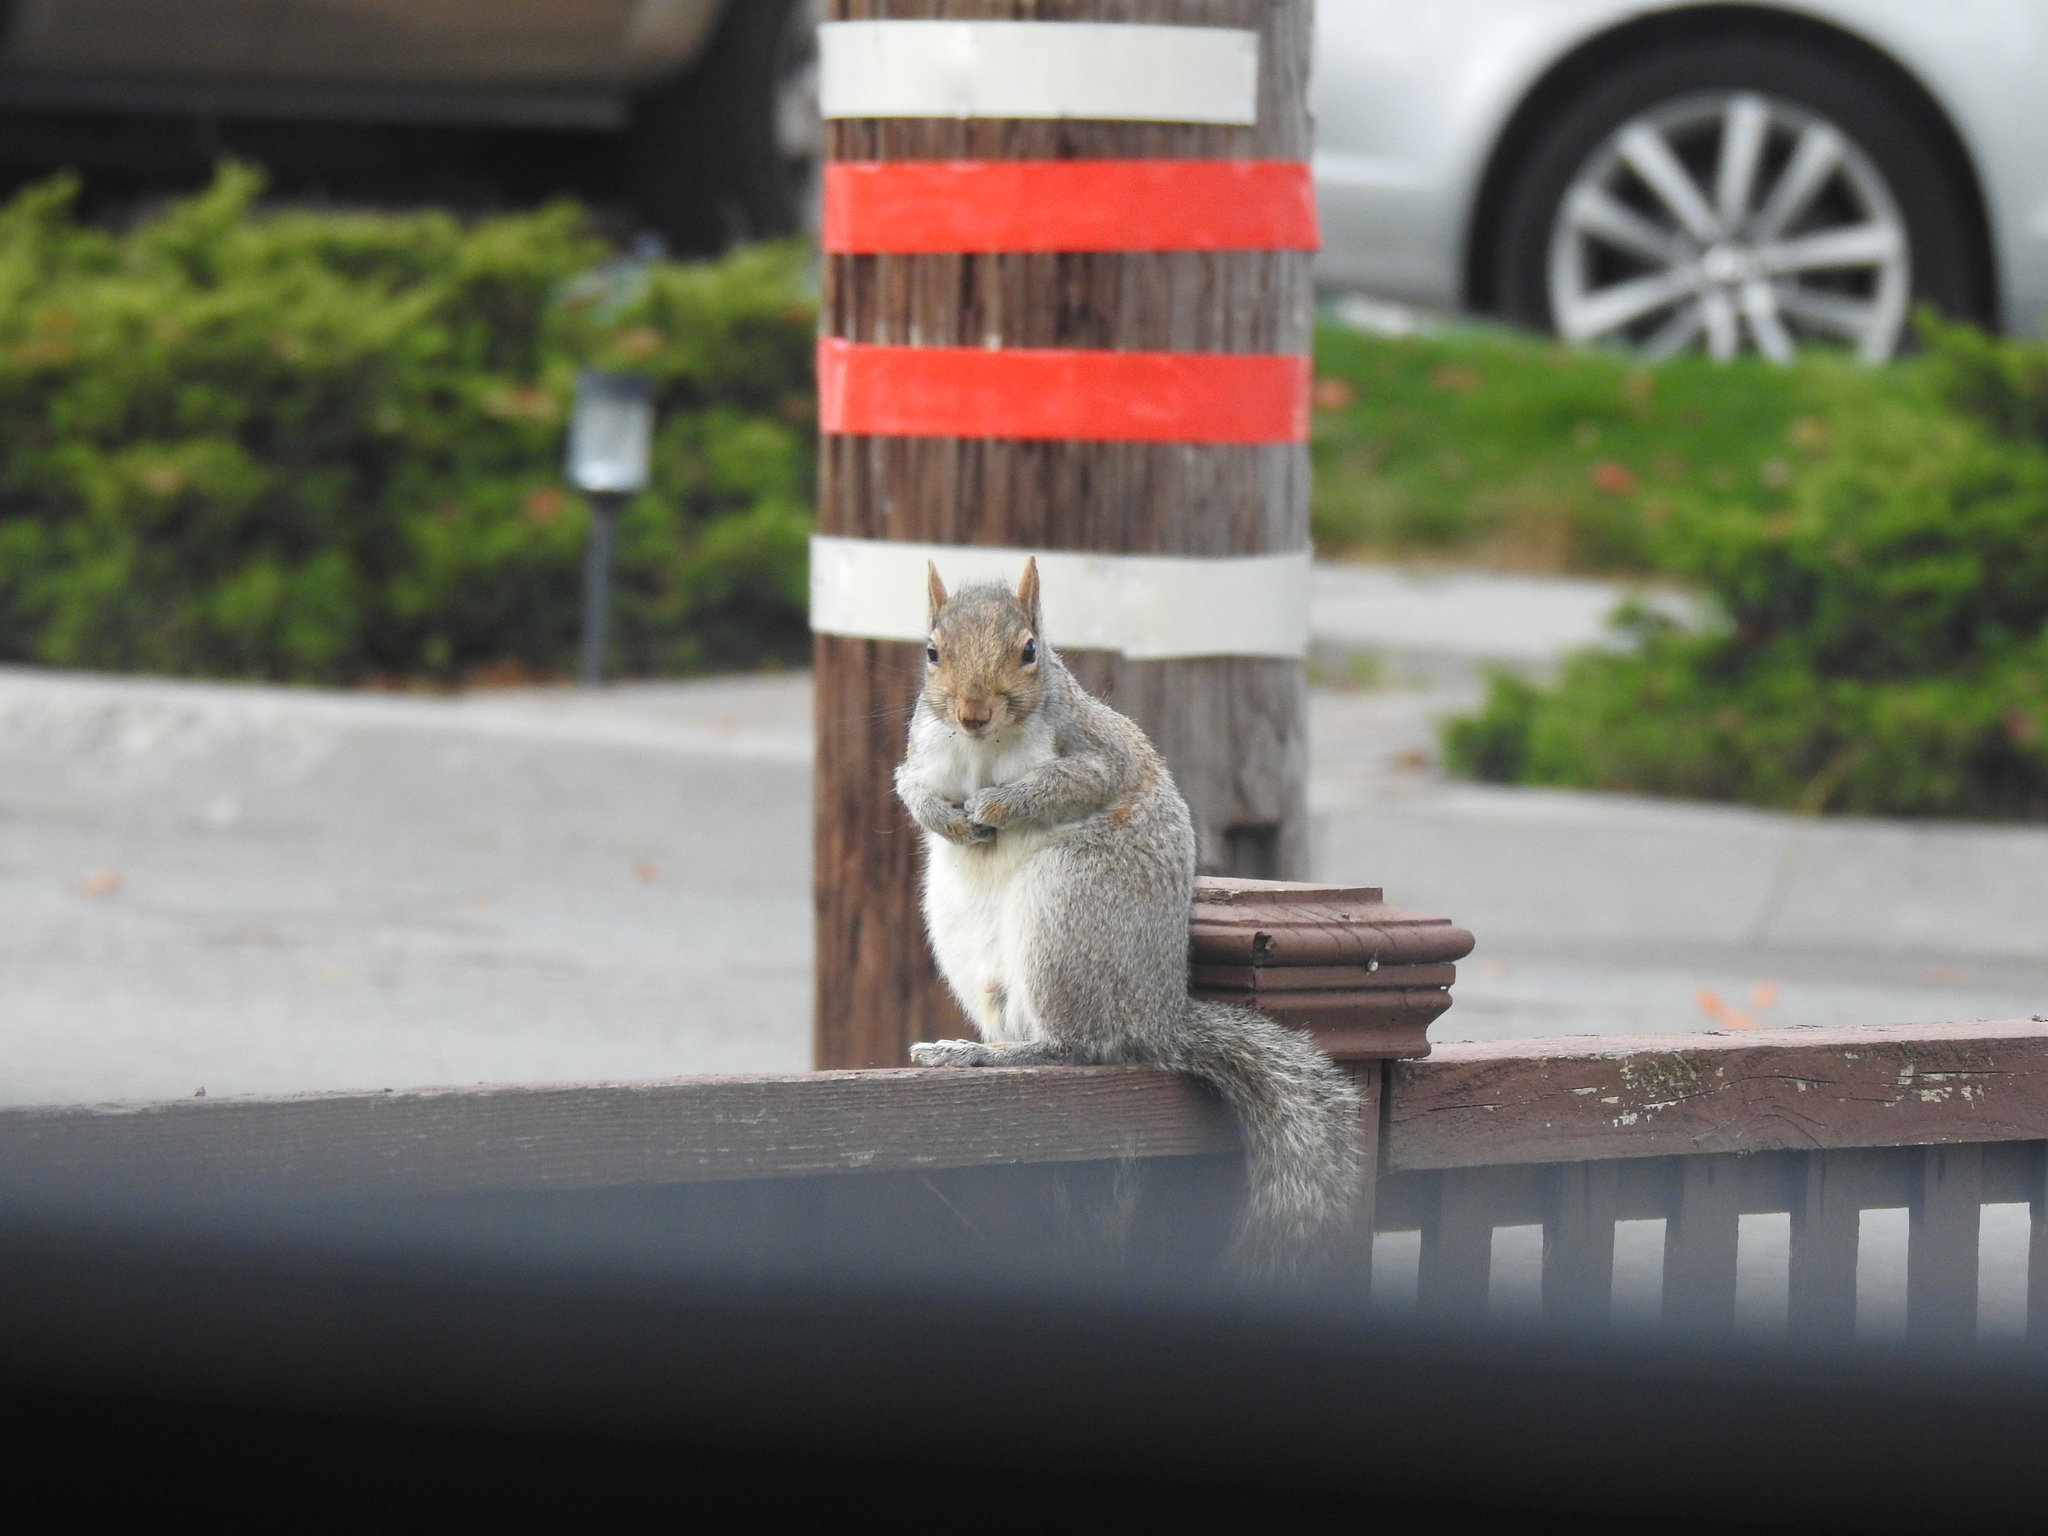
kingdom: Animalia
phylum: Chordata
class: Mammalia
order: Rodentia
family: Sciuridae
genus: Sciurus
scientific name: Sciurus carolinensis
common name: Eastern gray squirrel
